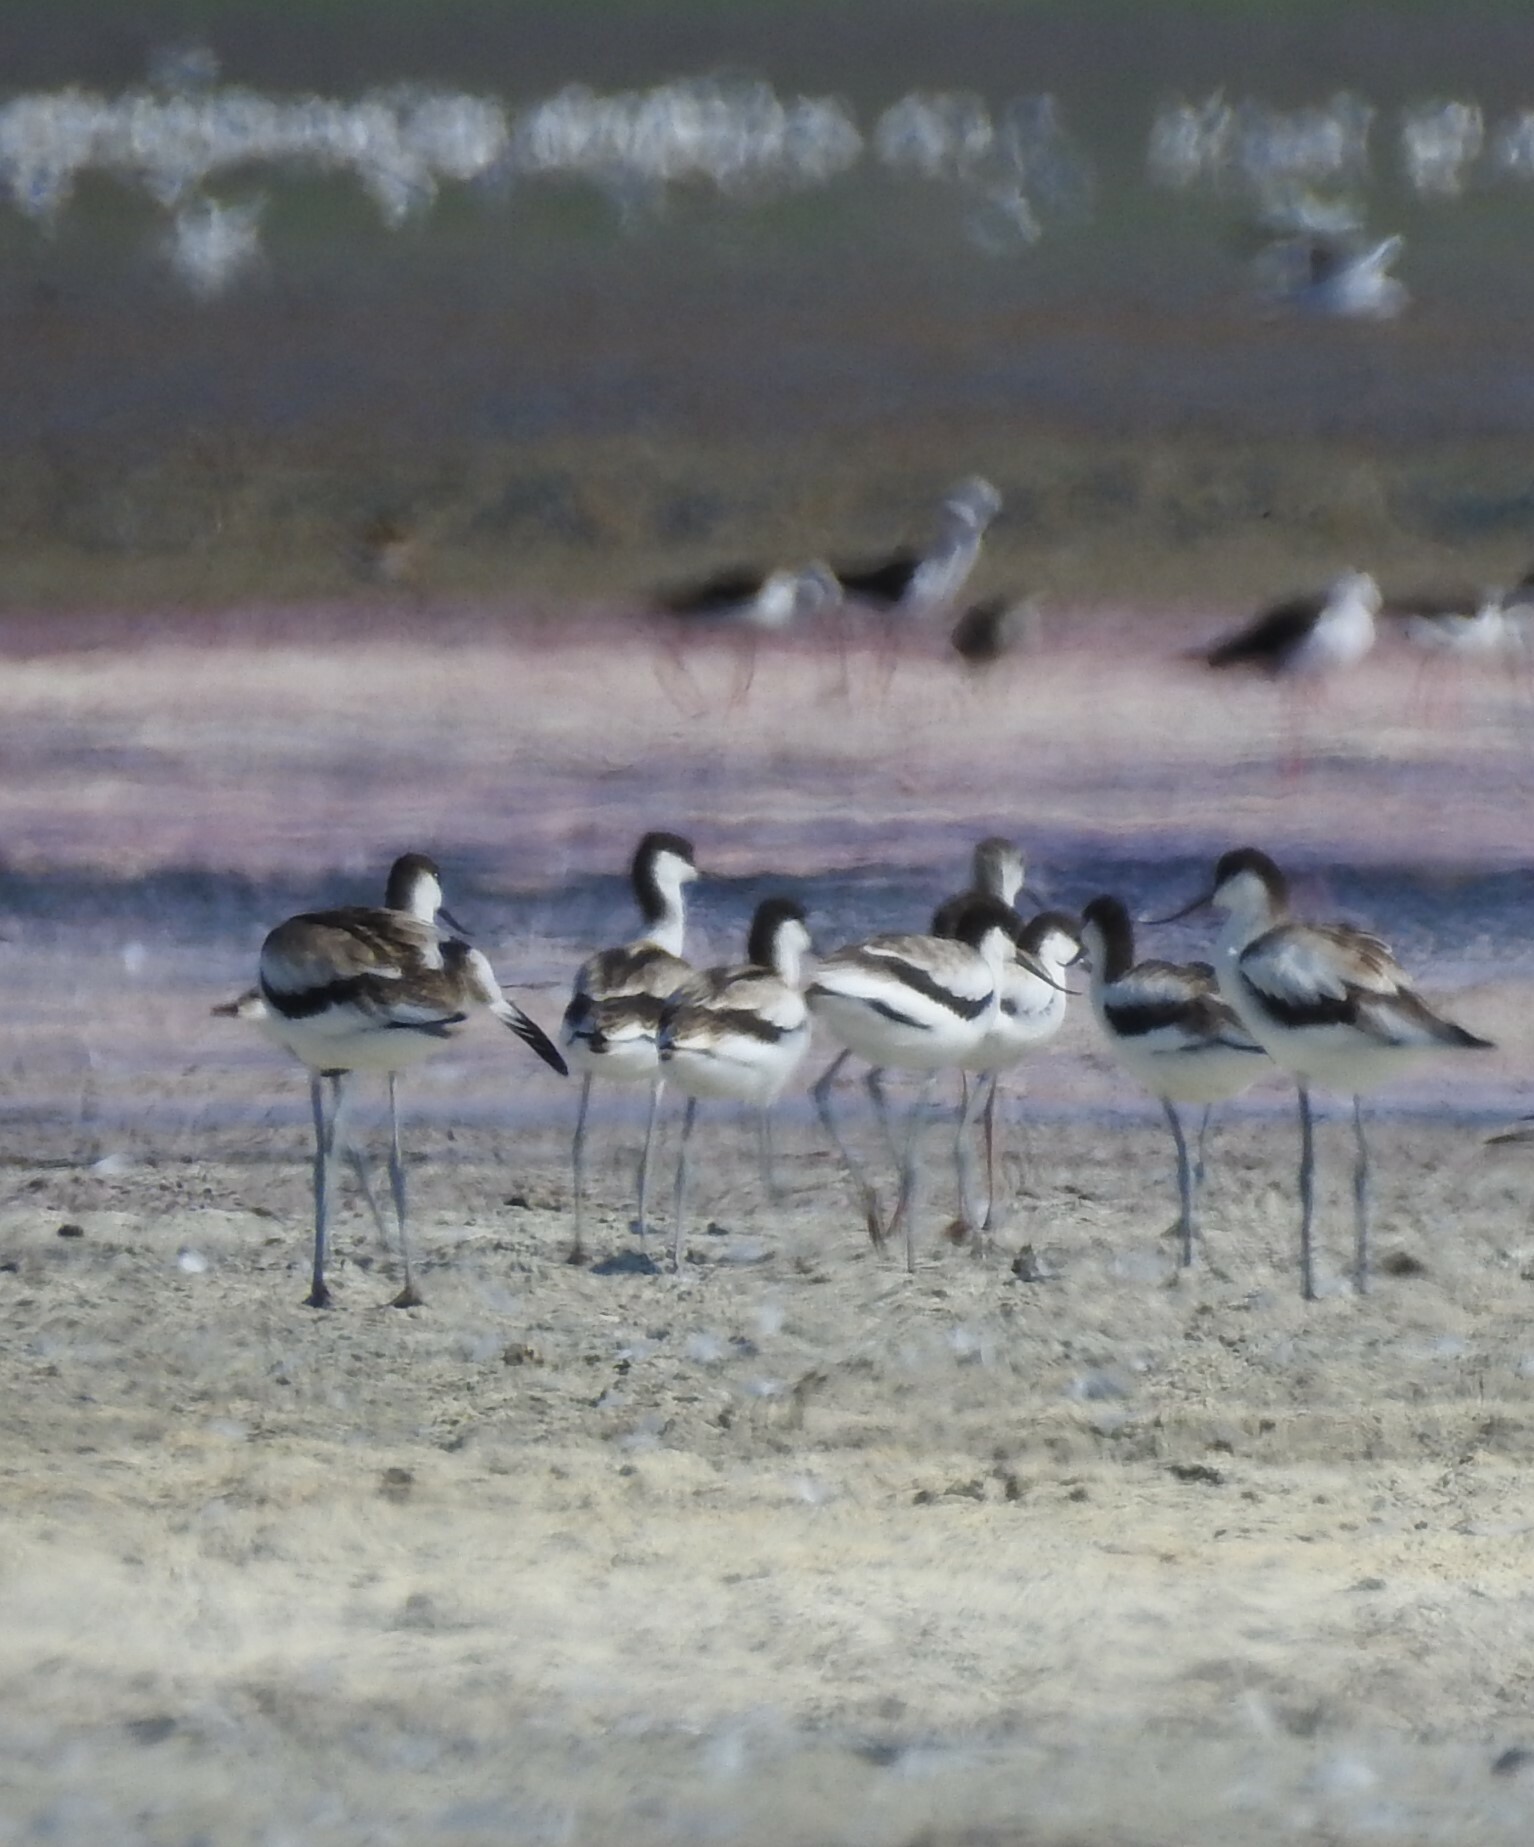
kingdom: Animalia
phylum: Chordata
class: Aves
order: Charadriiformes
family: Recurvirostridae
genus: Recurvirostra
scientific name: Recurvirostra avosetta
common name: Pied avocet
